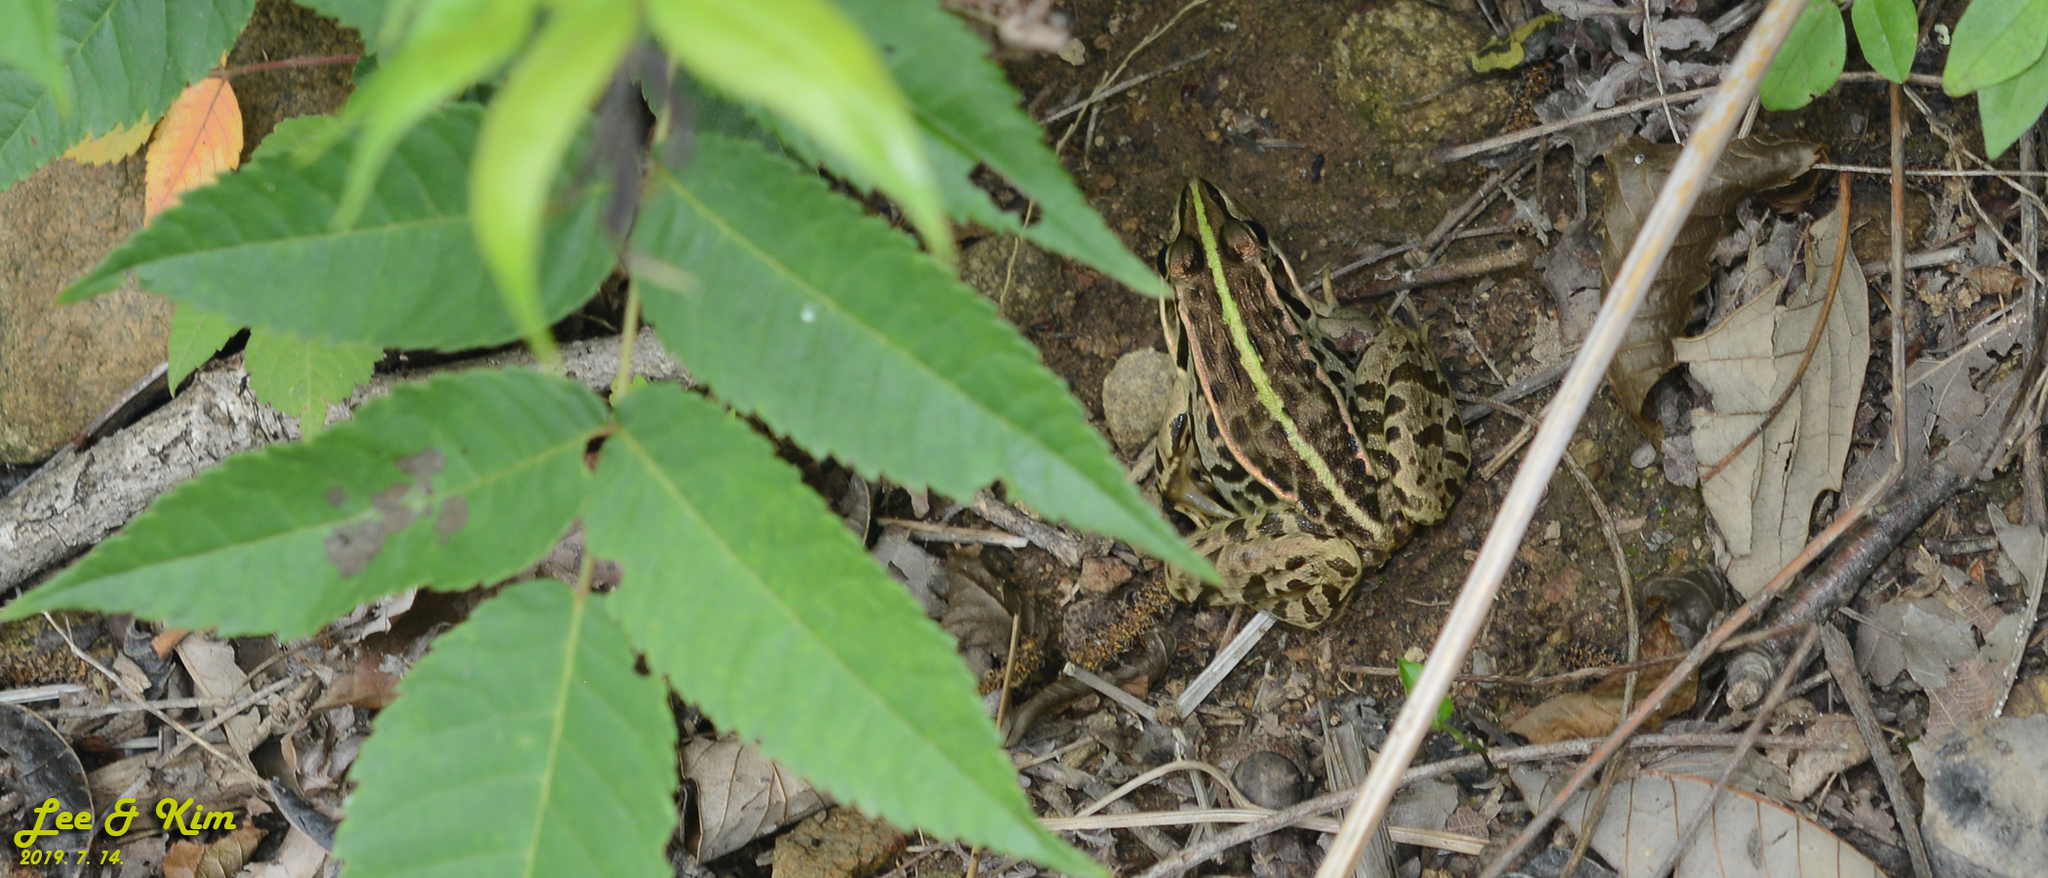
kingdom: Animalia
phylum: Chordata
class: Amphibia
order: Anura
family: Ranidae
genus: Pelophylax
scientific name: Pelophylax nigromaculatus
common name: Black-spotted pond frog
